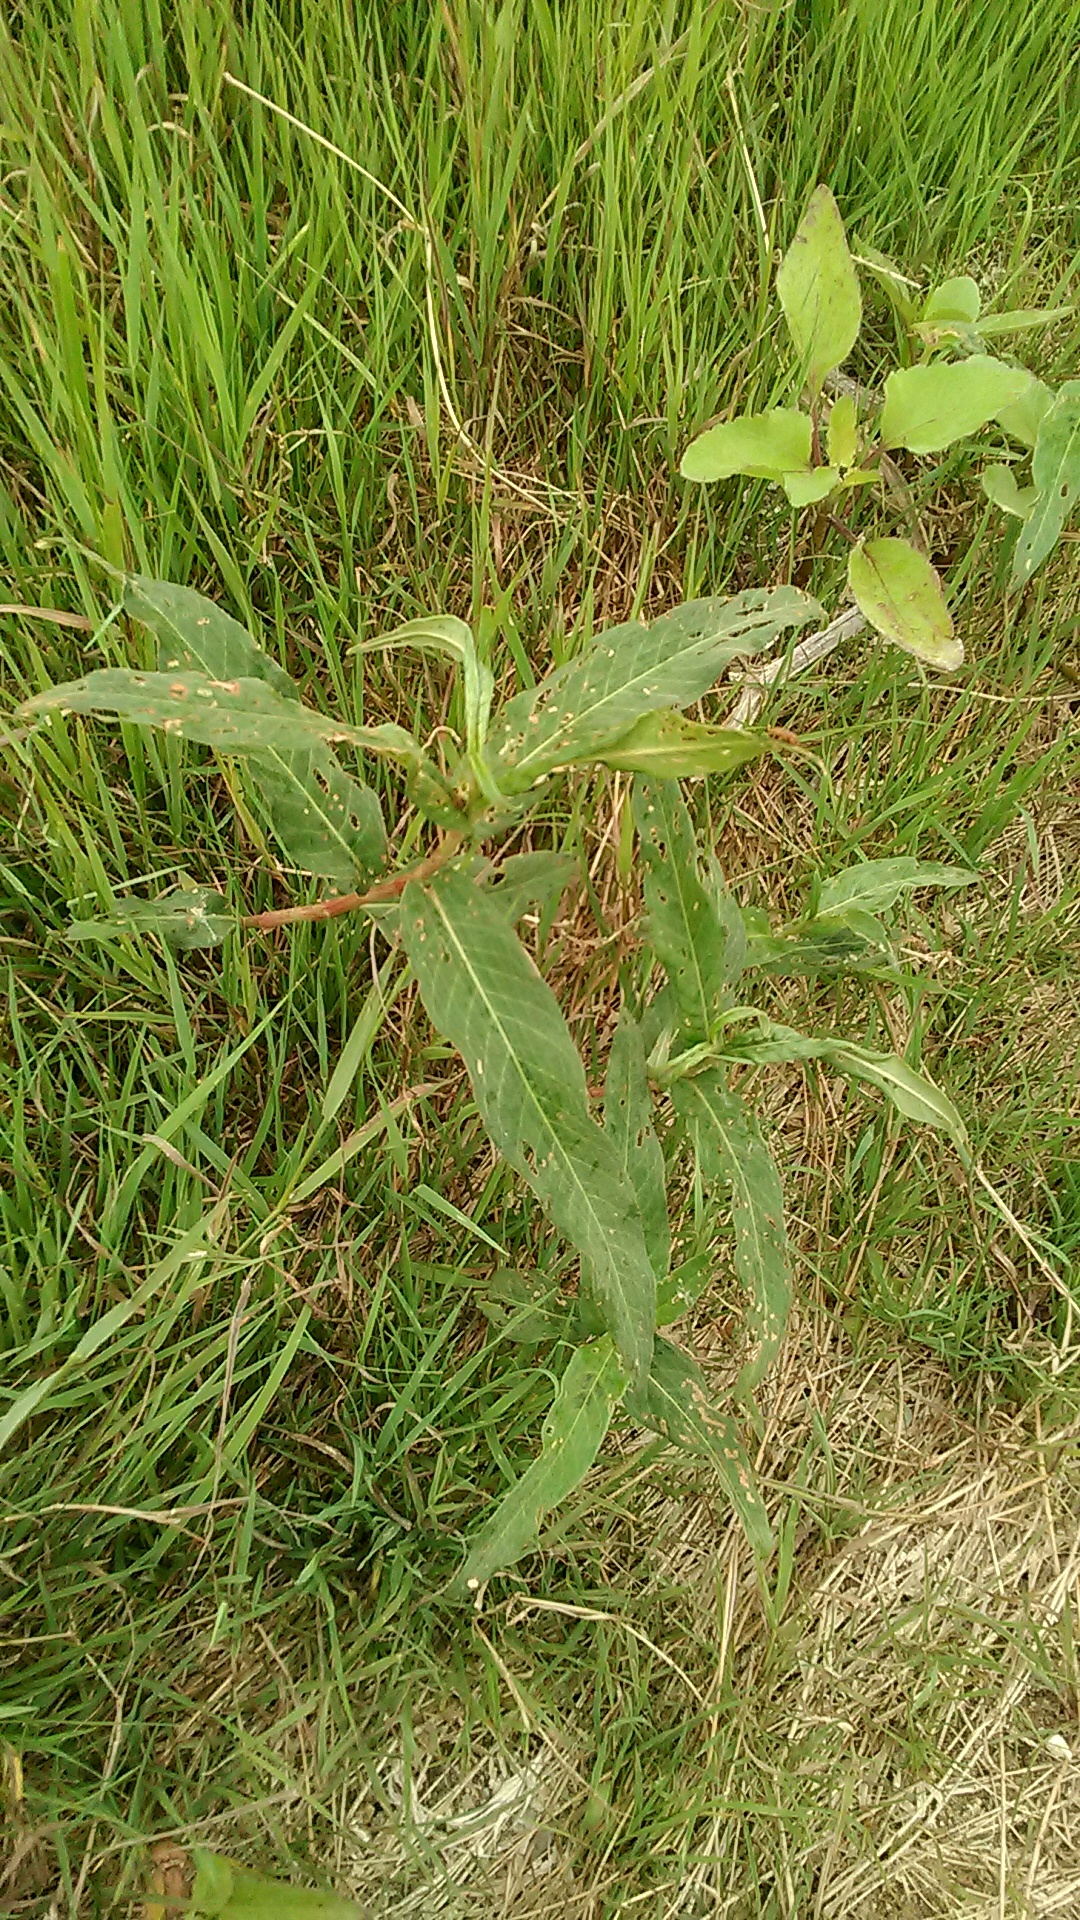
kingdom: Plantae
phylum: Tracheophyta
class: Magnoliopsida
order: Caryophyllales
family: Polygonaceae
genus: Persicaria
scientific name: Persicaria amphibia
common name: Amphibious bistort
